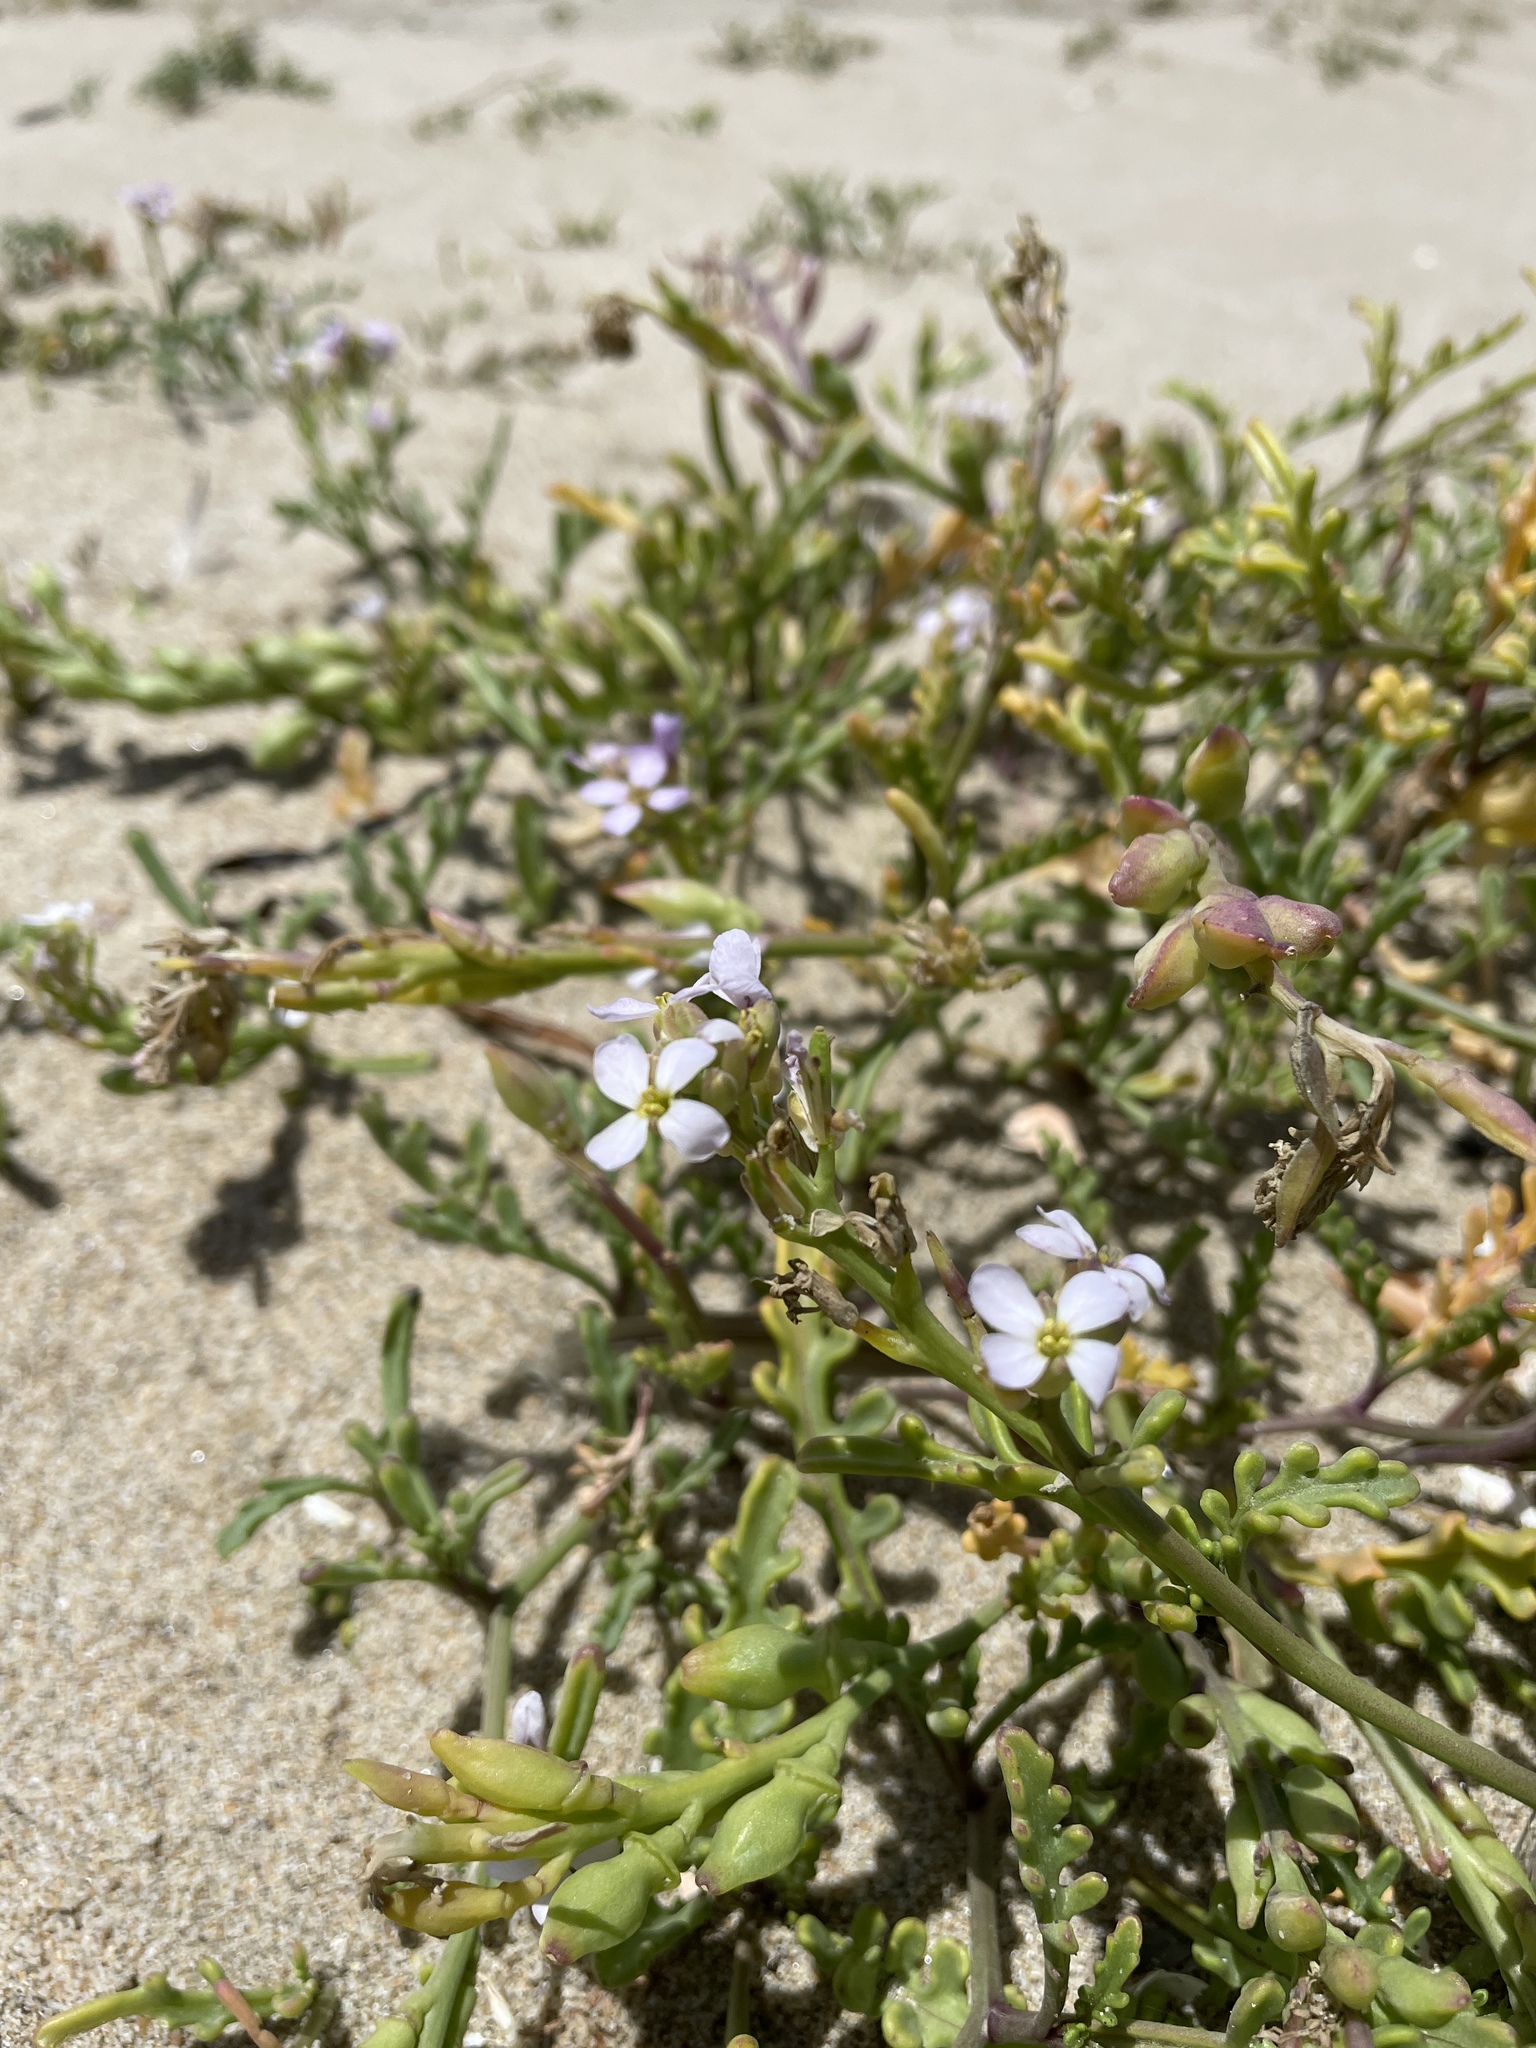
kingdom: Plantae
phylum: Tracheophyta
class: Magnoliopsida
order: Brassicales
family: Brassicaceae
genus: Cakile
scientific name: Cakile maritima
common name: Sea rocket
